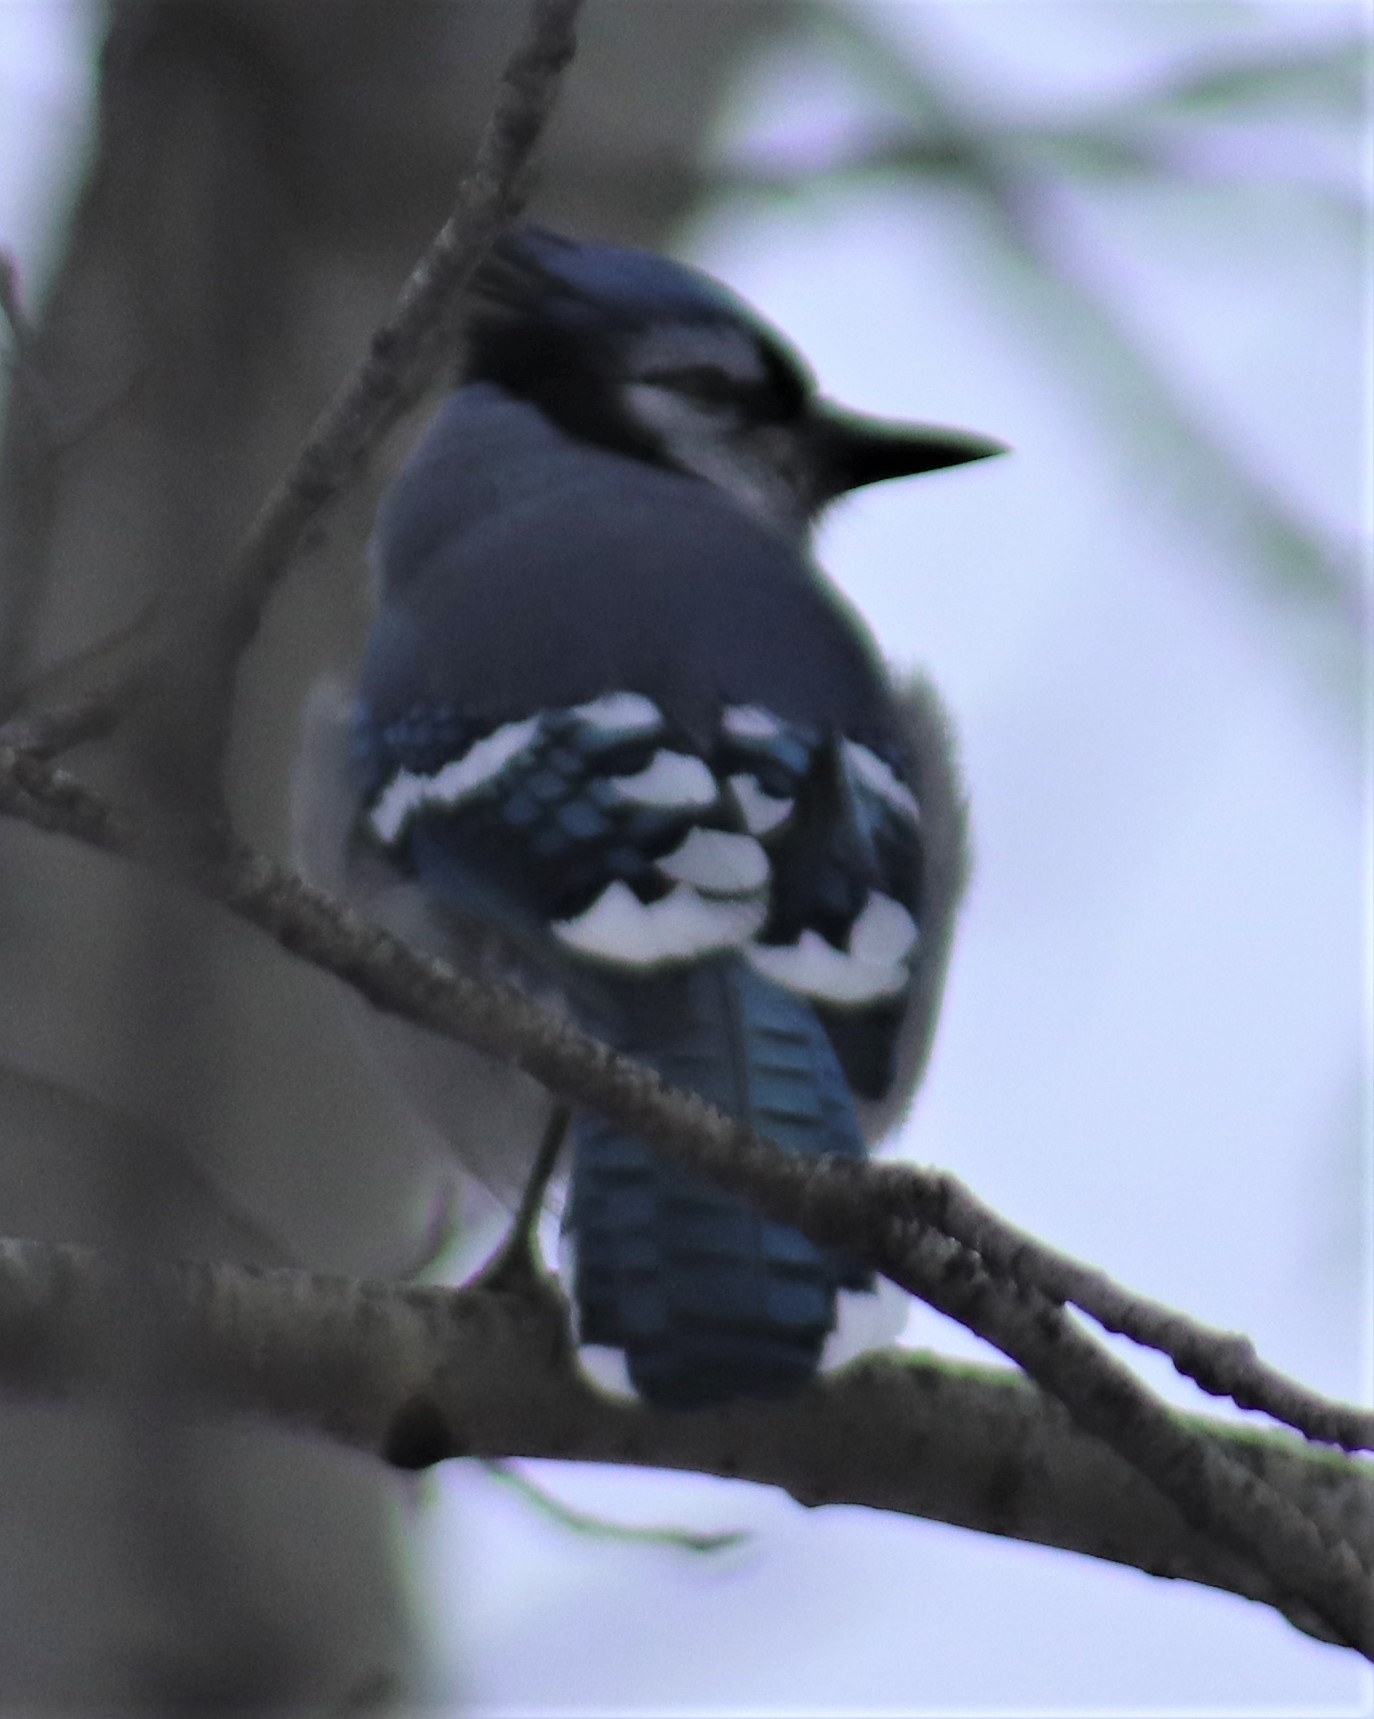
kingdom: Animalia
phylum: Chordata
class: Aves
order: Passeriformes
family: Corvidae
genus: Cyanocitta
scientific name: Cyanocitta cristata
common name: Blue jay
